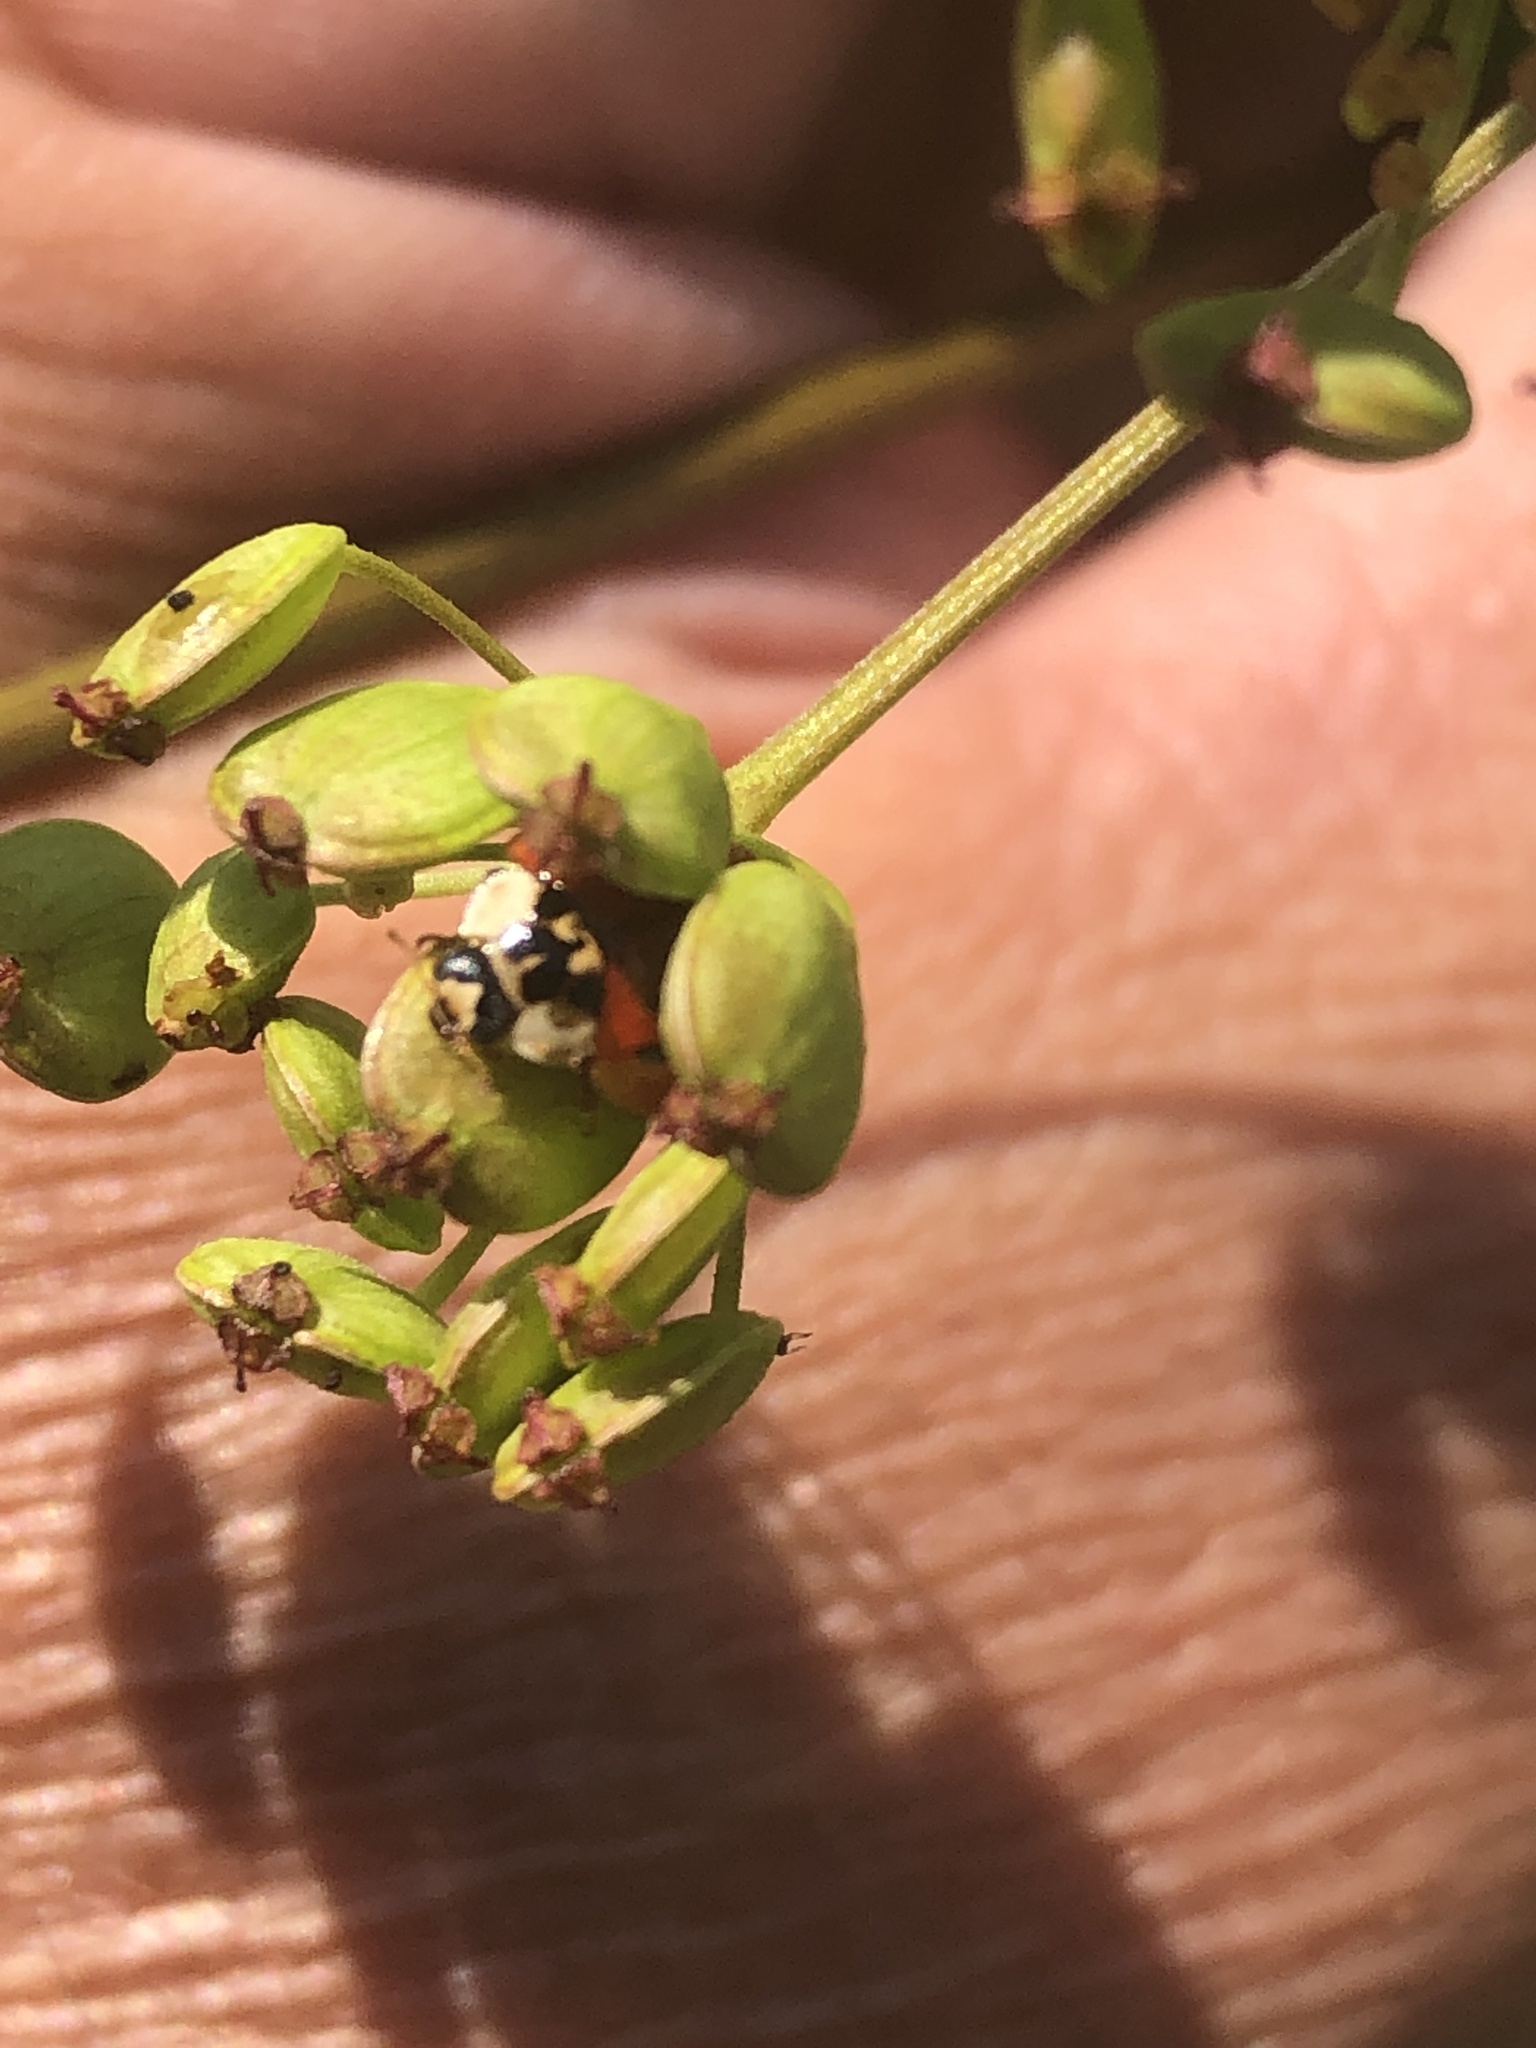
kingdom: Animalia
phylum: Arthropoda
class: Insecta
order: Coleoptera
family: Coccinellidae
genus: Harmonia
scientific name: Harmonia axyridis
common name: Harlequin ladybird
